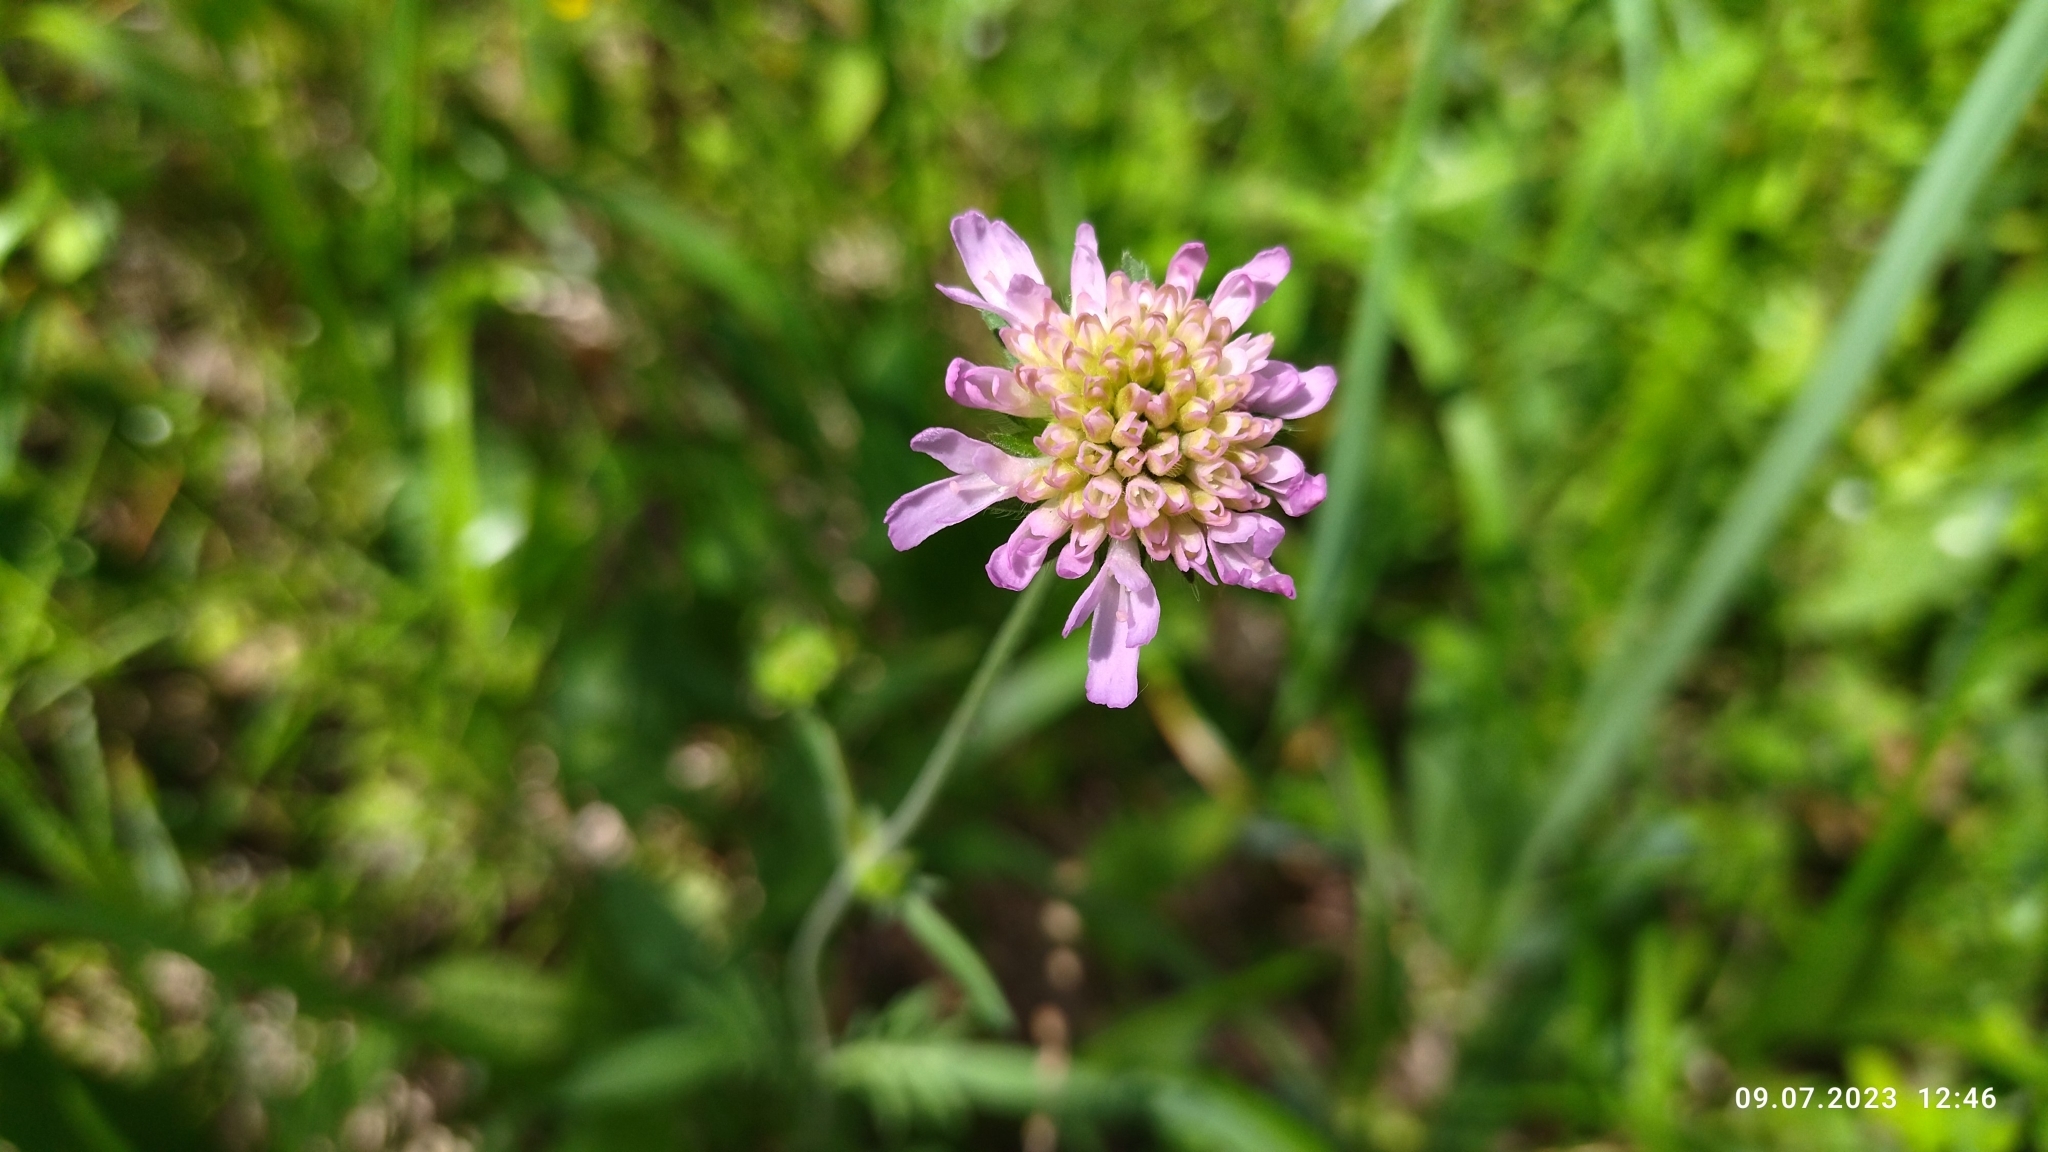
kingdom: Plantae
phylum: Tracheophyta
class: Magnoliopsida
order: Dipsacales
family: Caprifoliaceae
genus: Knautia
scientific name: Knautia arvensis
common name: Field scabiosa
